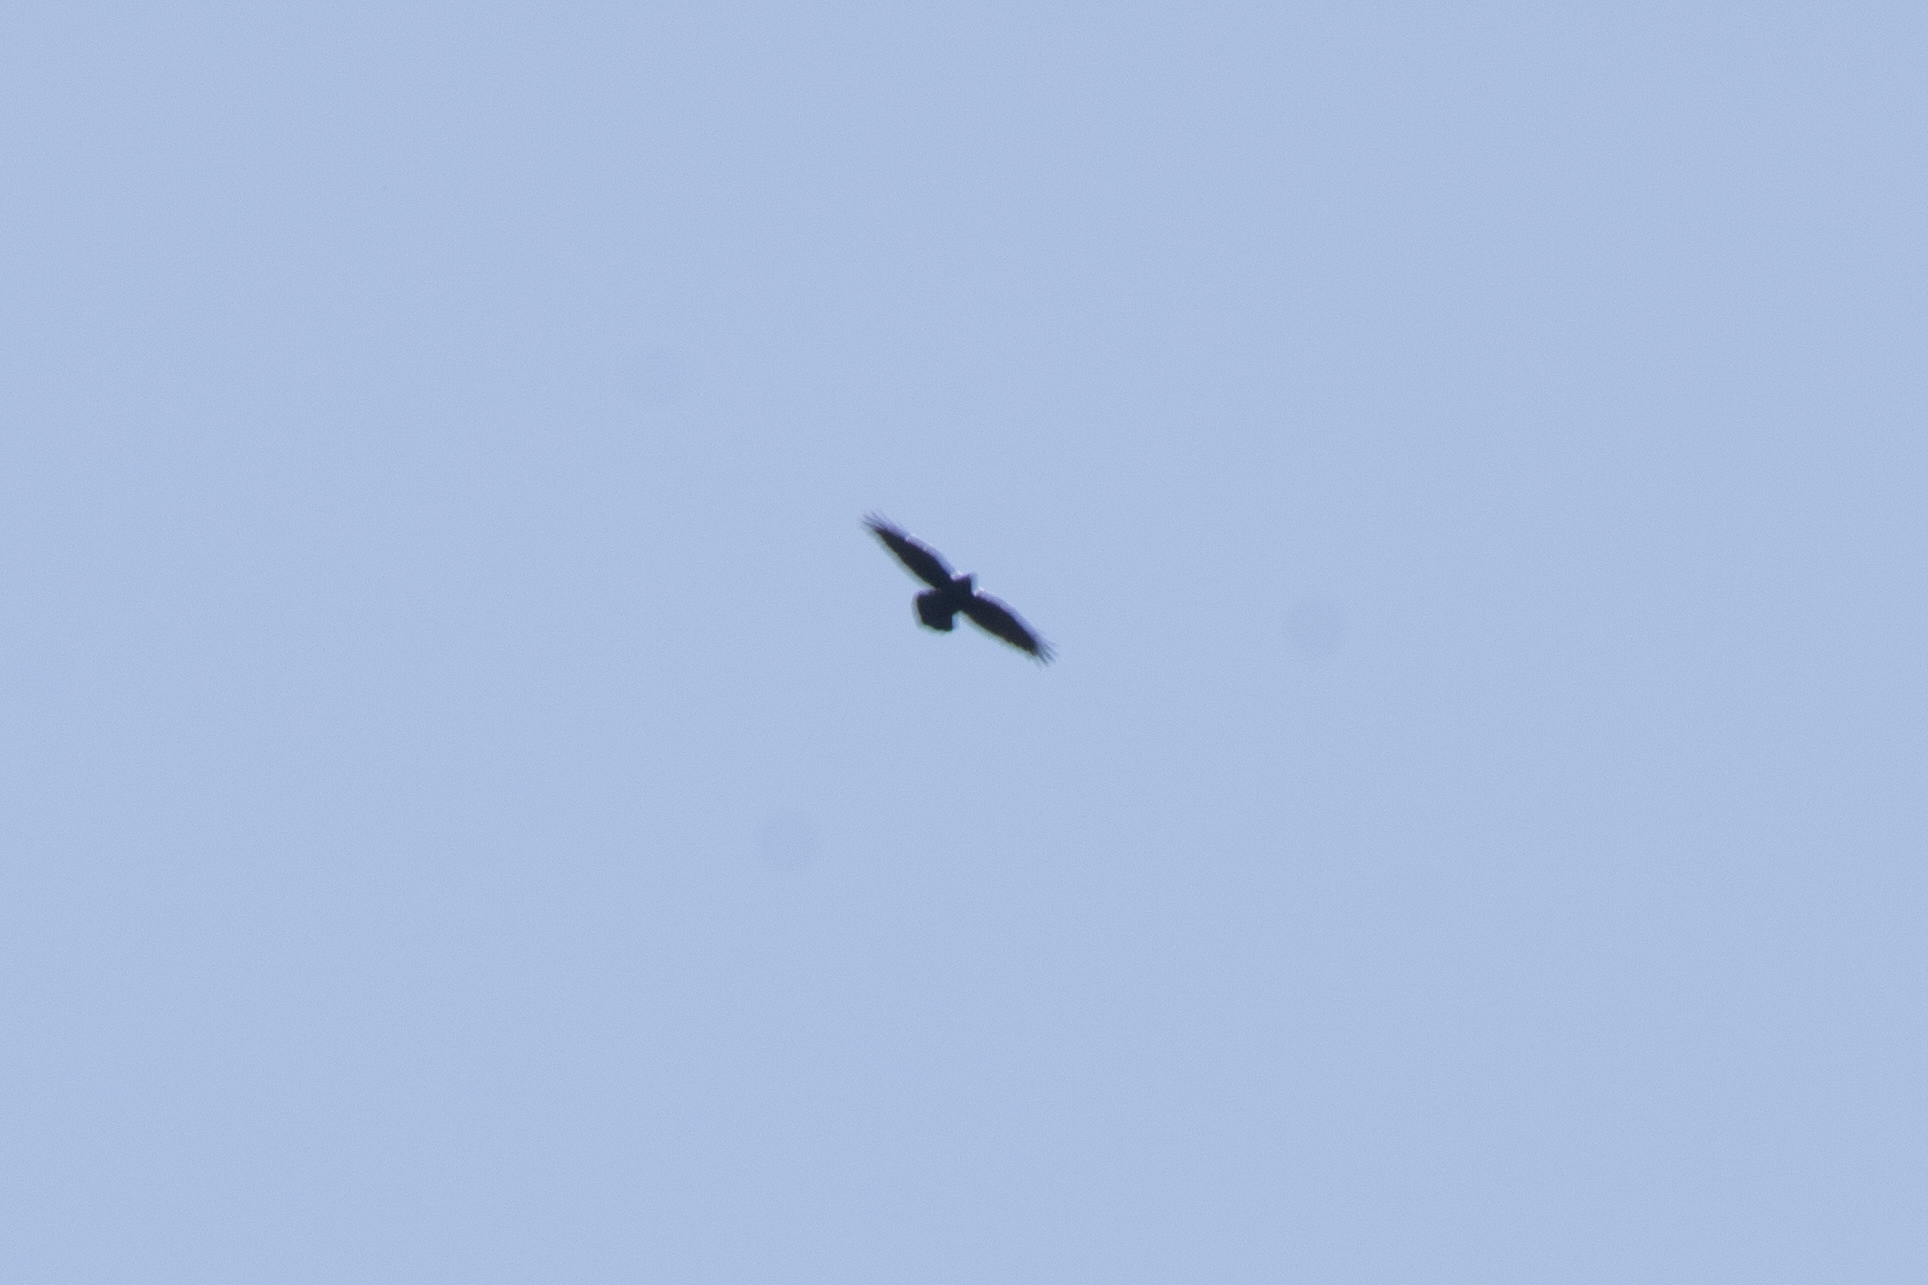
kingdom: Animalia
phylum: Chordata
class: Aves
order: Passeriformes
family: Corvidae
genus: Corvus
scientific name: Corvus corax
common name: Common raven
